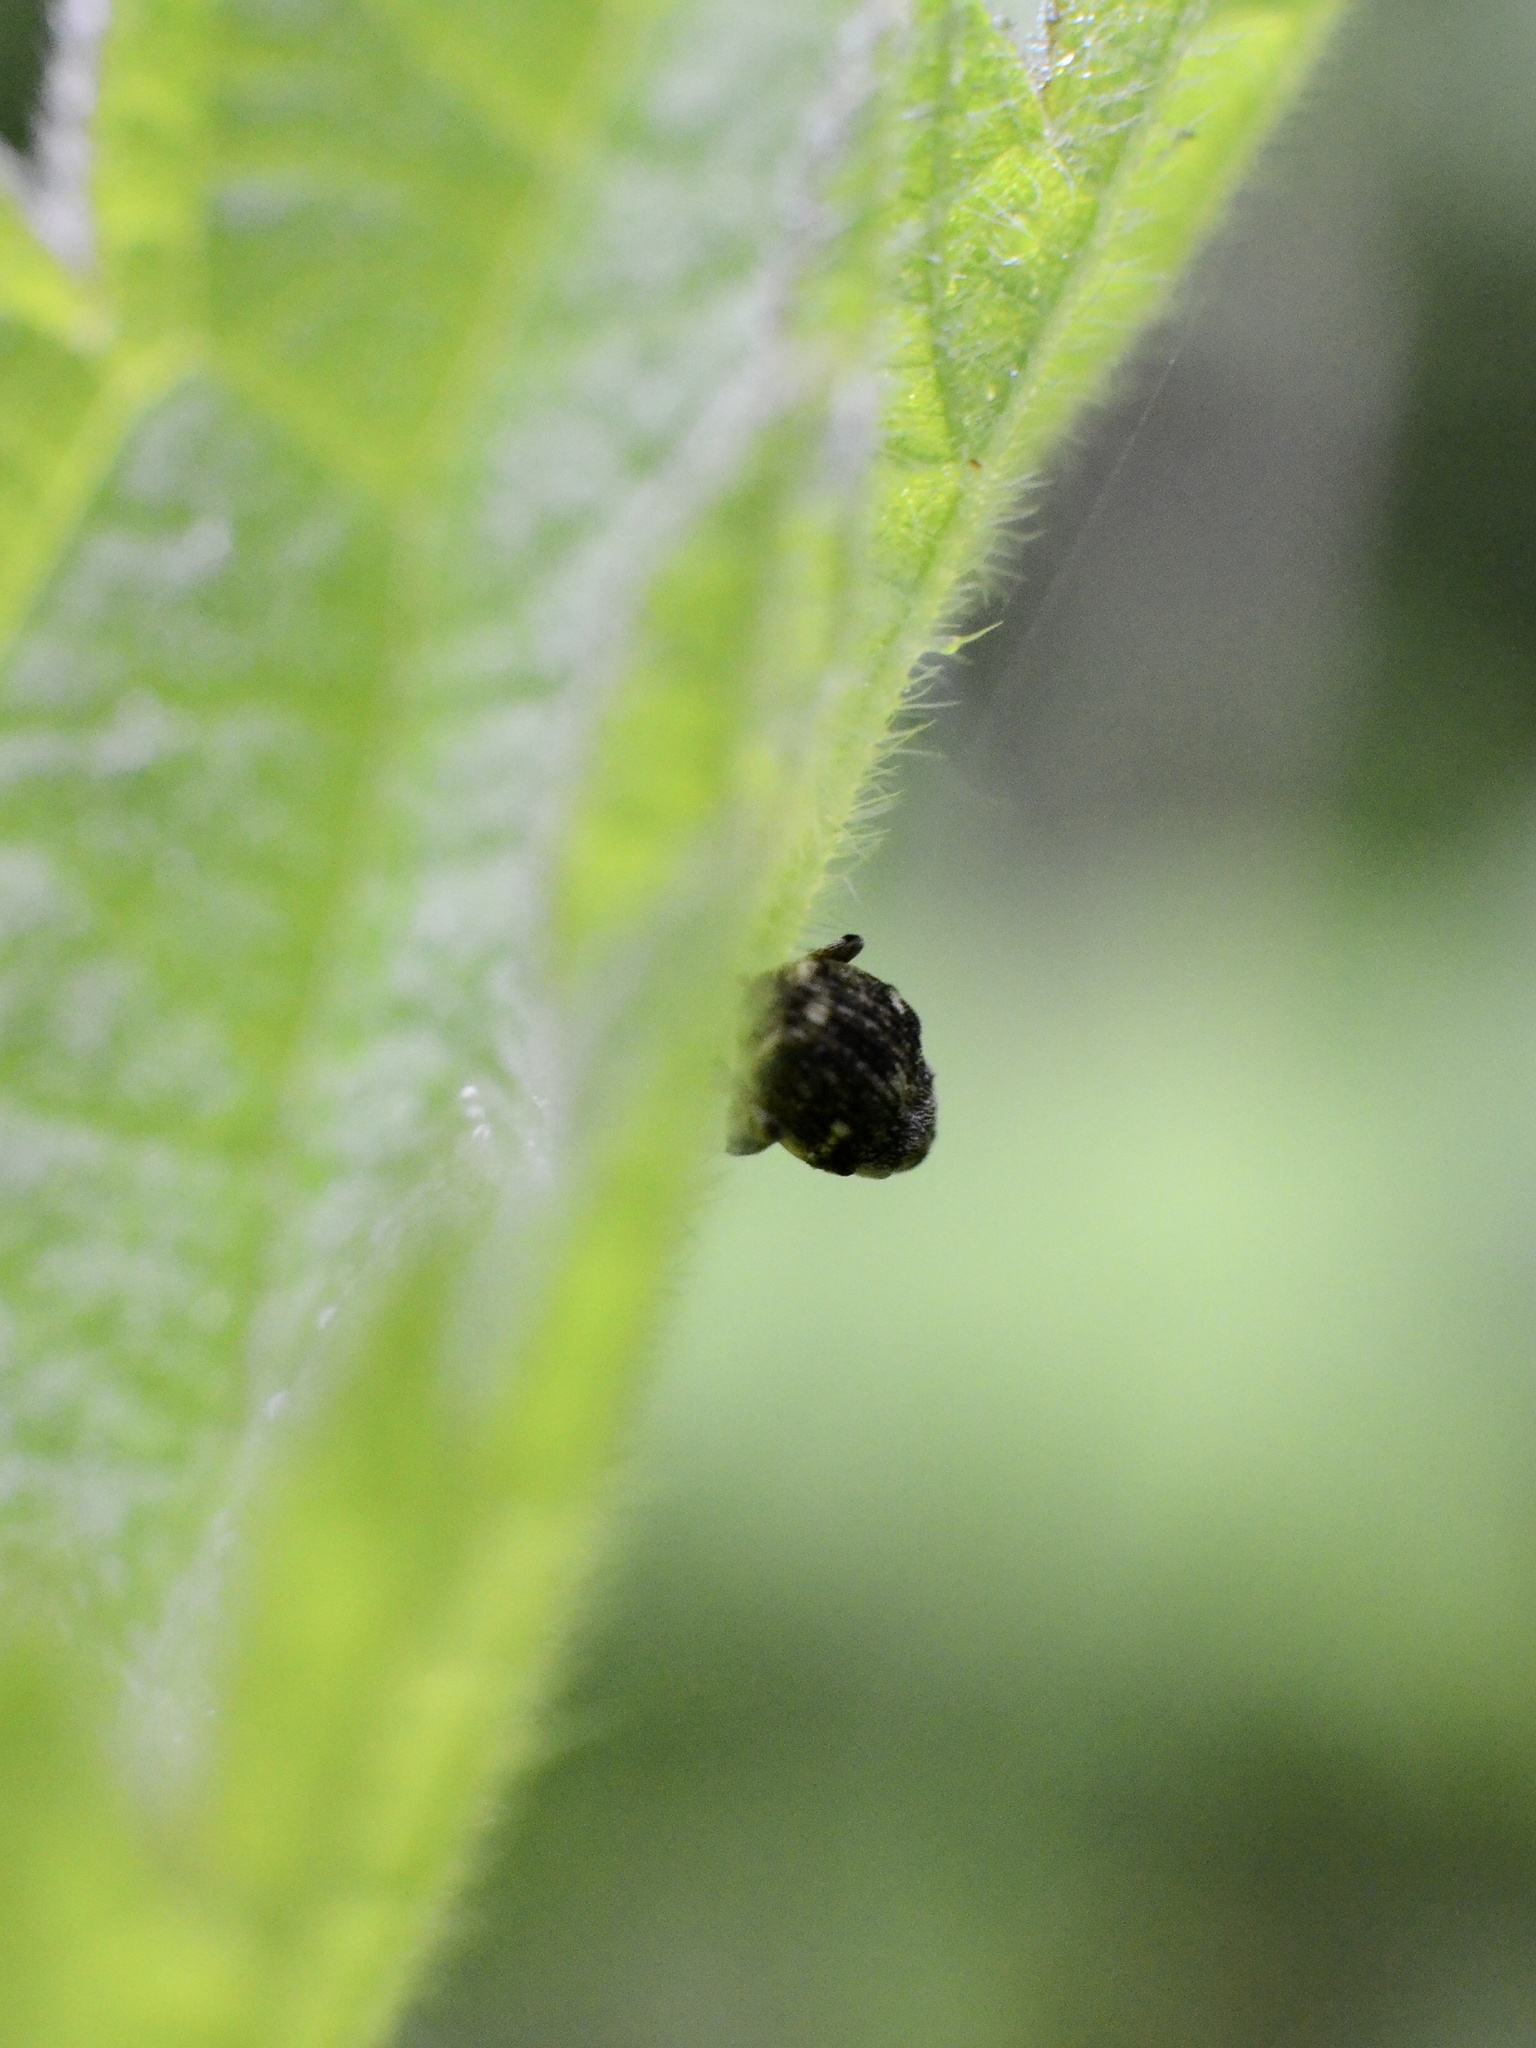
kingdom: Animalia
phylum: Arthropoda
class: Insecta
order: Coleoptera
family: Curculionidae
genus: Nedyus
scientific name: Nedyus quadrimaculatus
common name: Small nettle weevil
